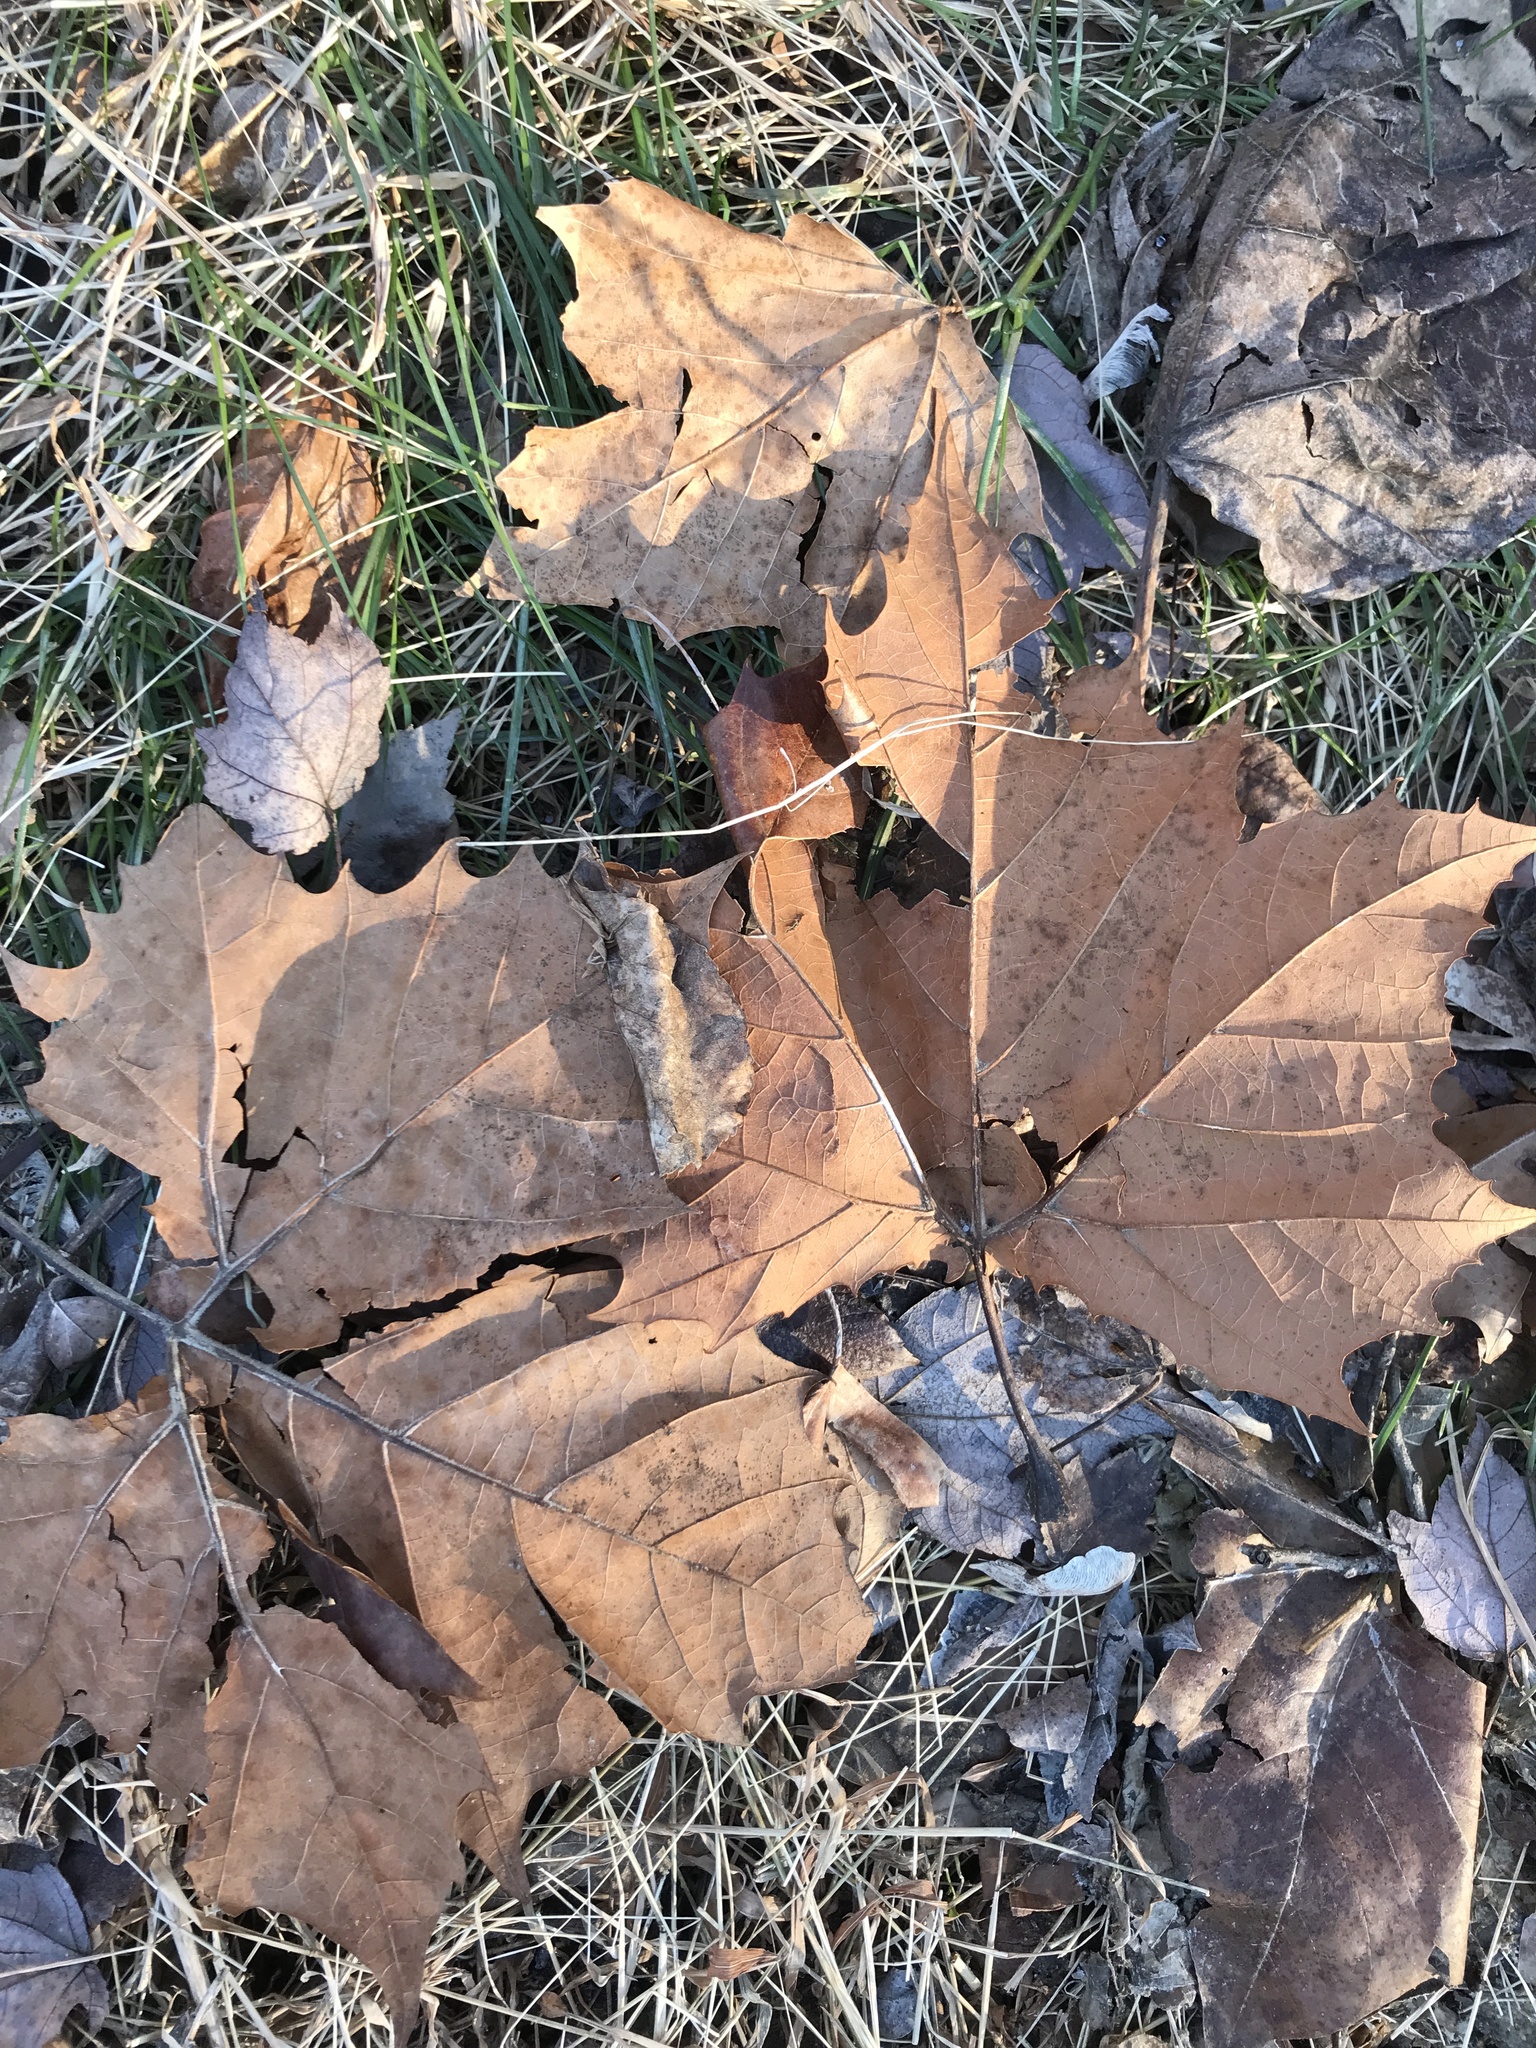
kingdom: Plantae
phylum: Tracheophyta
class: Magnoliopsida
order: Proteales
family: Platanaceae
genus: Platanus
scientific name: Platanus occidentalis
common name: American sycamore
